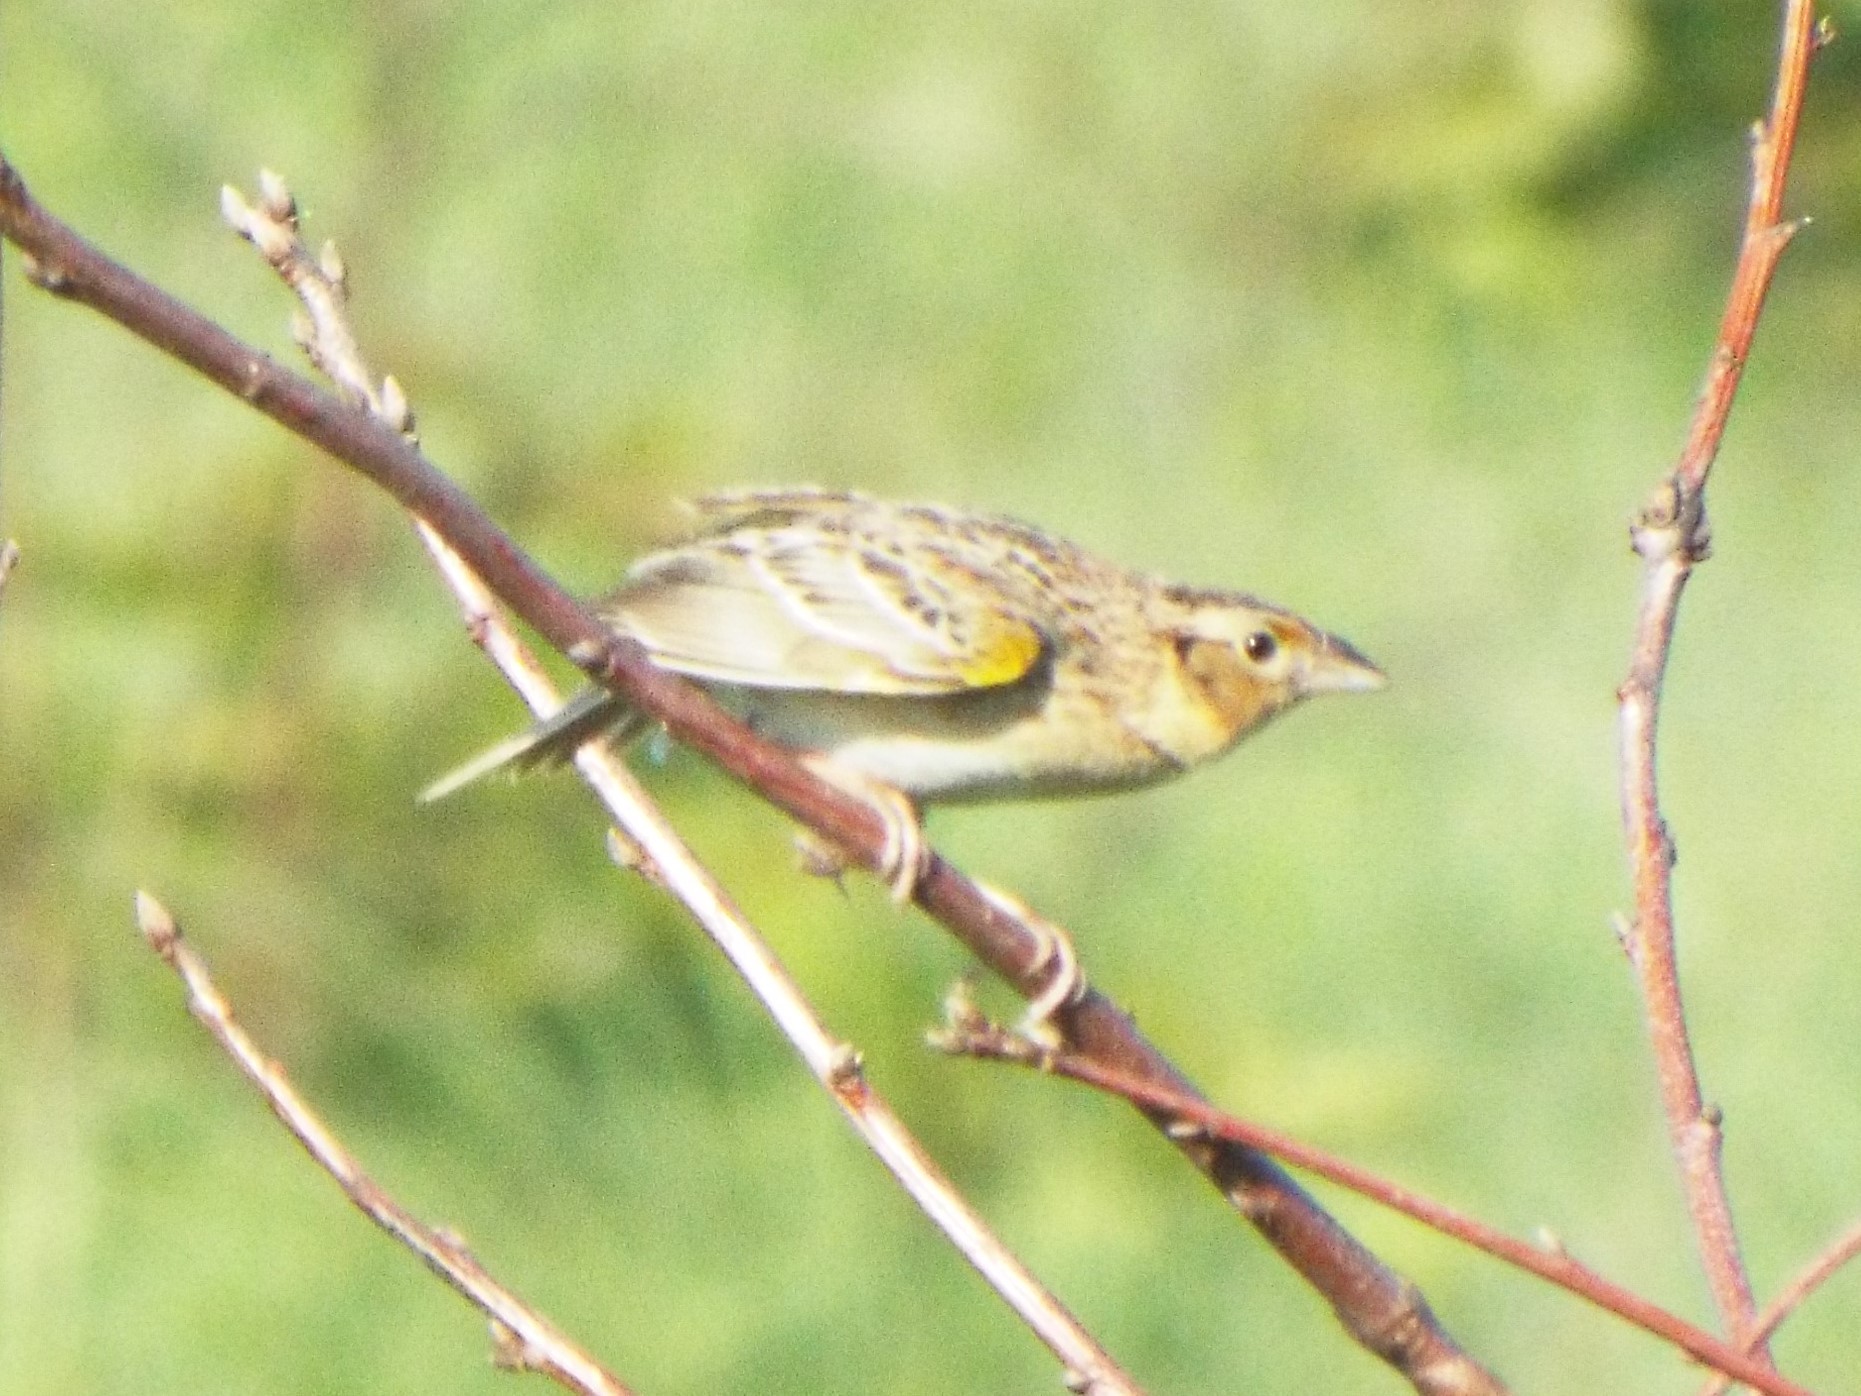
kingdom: Animalia
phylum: Chordata
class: Aves
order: Passeriformes
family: Passerellidae
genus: Ammodramus
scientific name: Ammodramus savannarum
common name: Grasshopper sparrow
